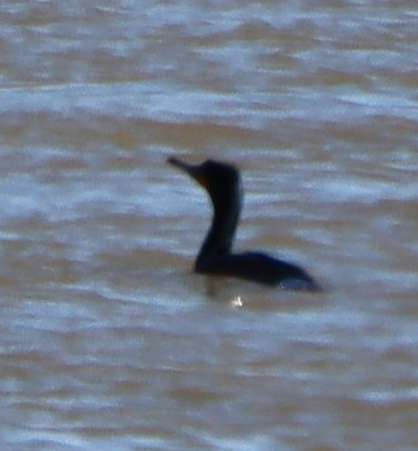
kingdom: Animalia
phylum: Chordata
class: Aves
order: Suliformes
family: Phalacrocoracidae
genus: Phalacrocorax
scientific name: Phalacrocorax auritus
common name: Double-crested cormorant
